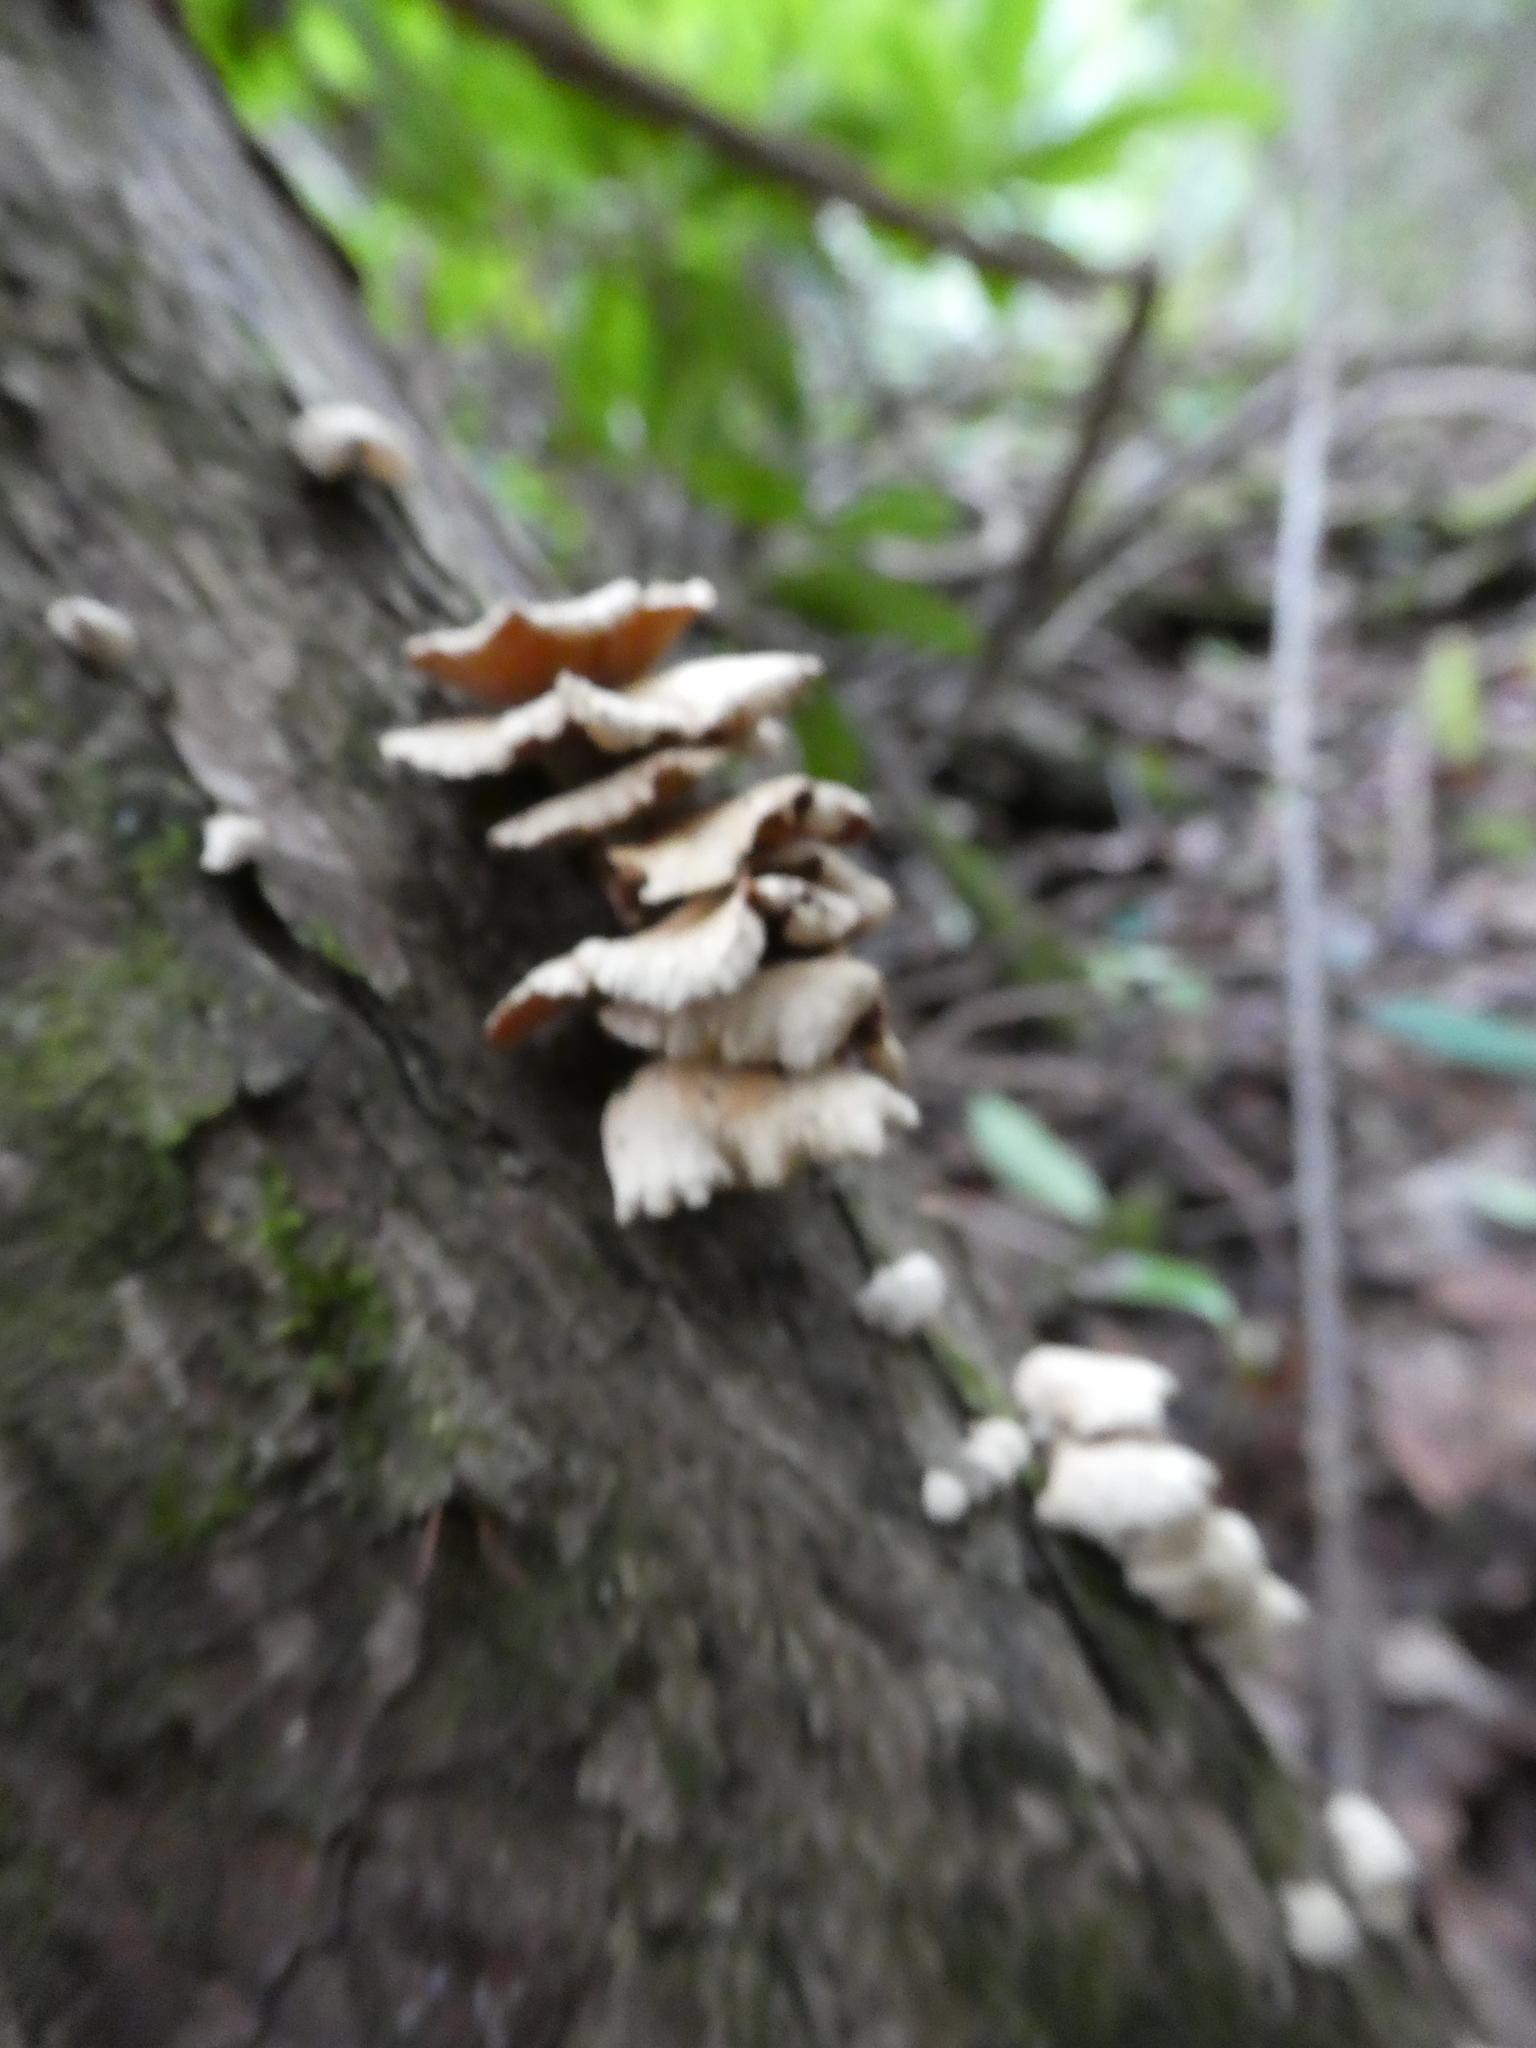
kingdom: Fungi
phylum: Basidiomycota
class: Agaricomycetes
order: Agaricales
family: Schizophyllaceae
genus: Schizophyllum
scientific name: Schizophyllum commune
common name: Common porecrust
